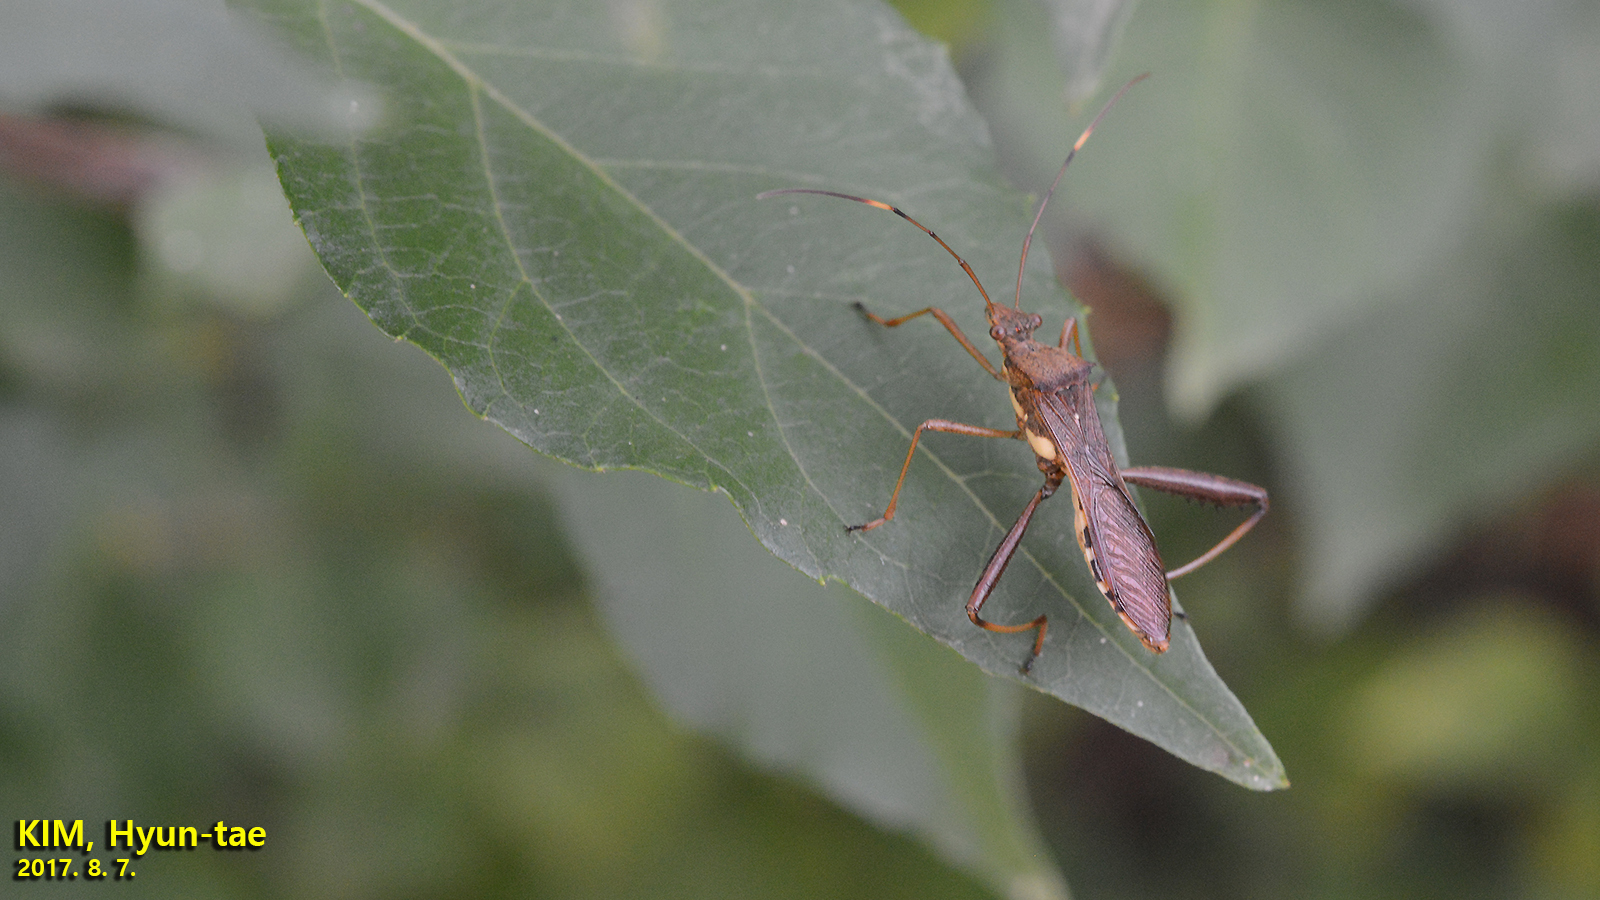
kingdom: Animalia
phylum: Arthropoda
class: Insecta
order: Hemiptera
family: Alydidae
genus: Riptortus
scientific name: Riptortus pedestris
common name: Bean bug
